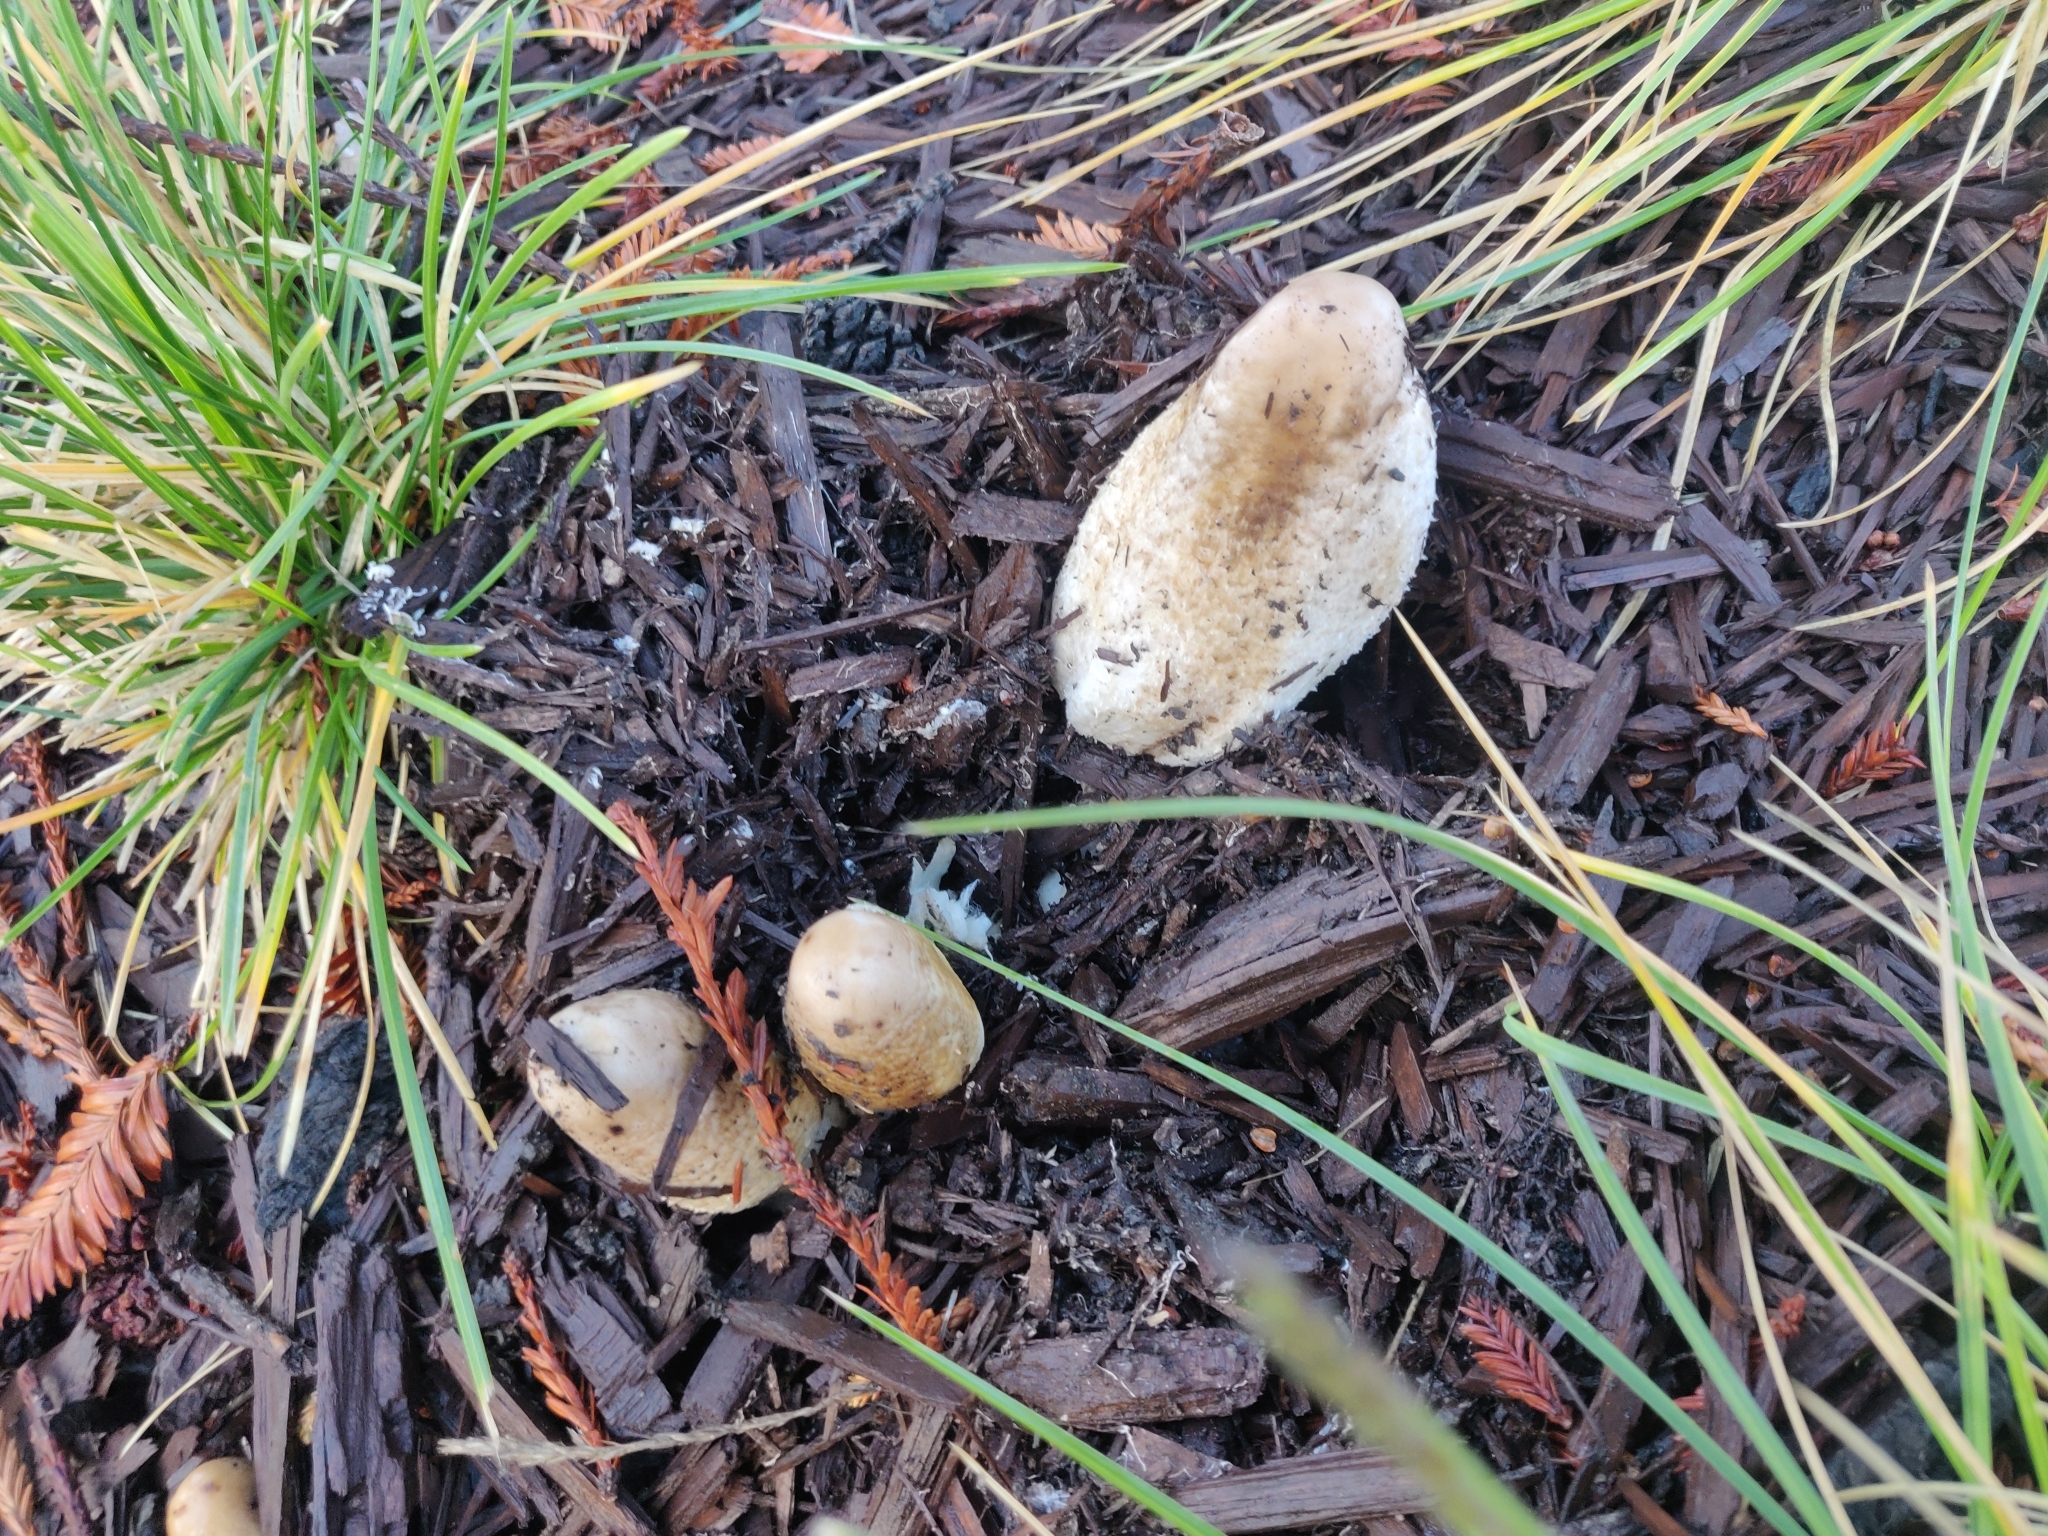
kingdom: Fungi
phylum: Basidiomycota
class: Agaricomycetes
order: Agaricales
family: Agaricaceae
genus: Coprinus
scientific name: Coprinus comatus
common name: Lawyer's wig
